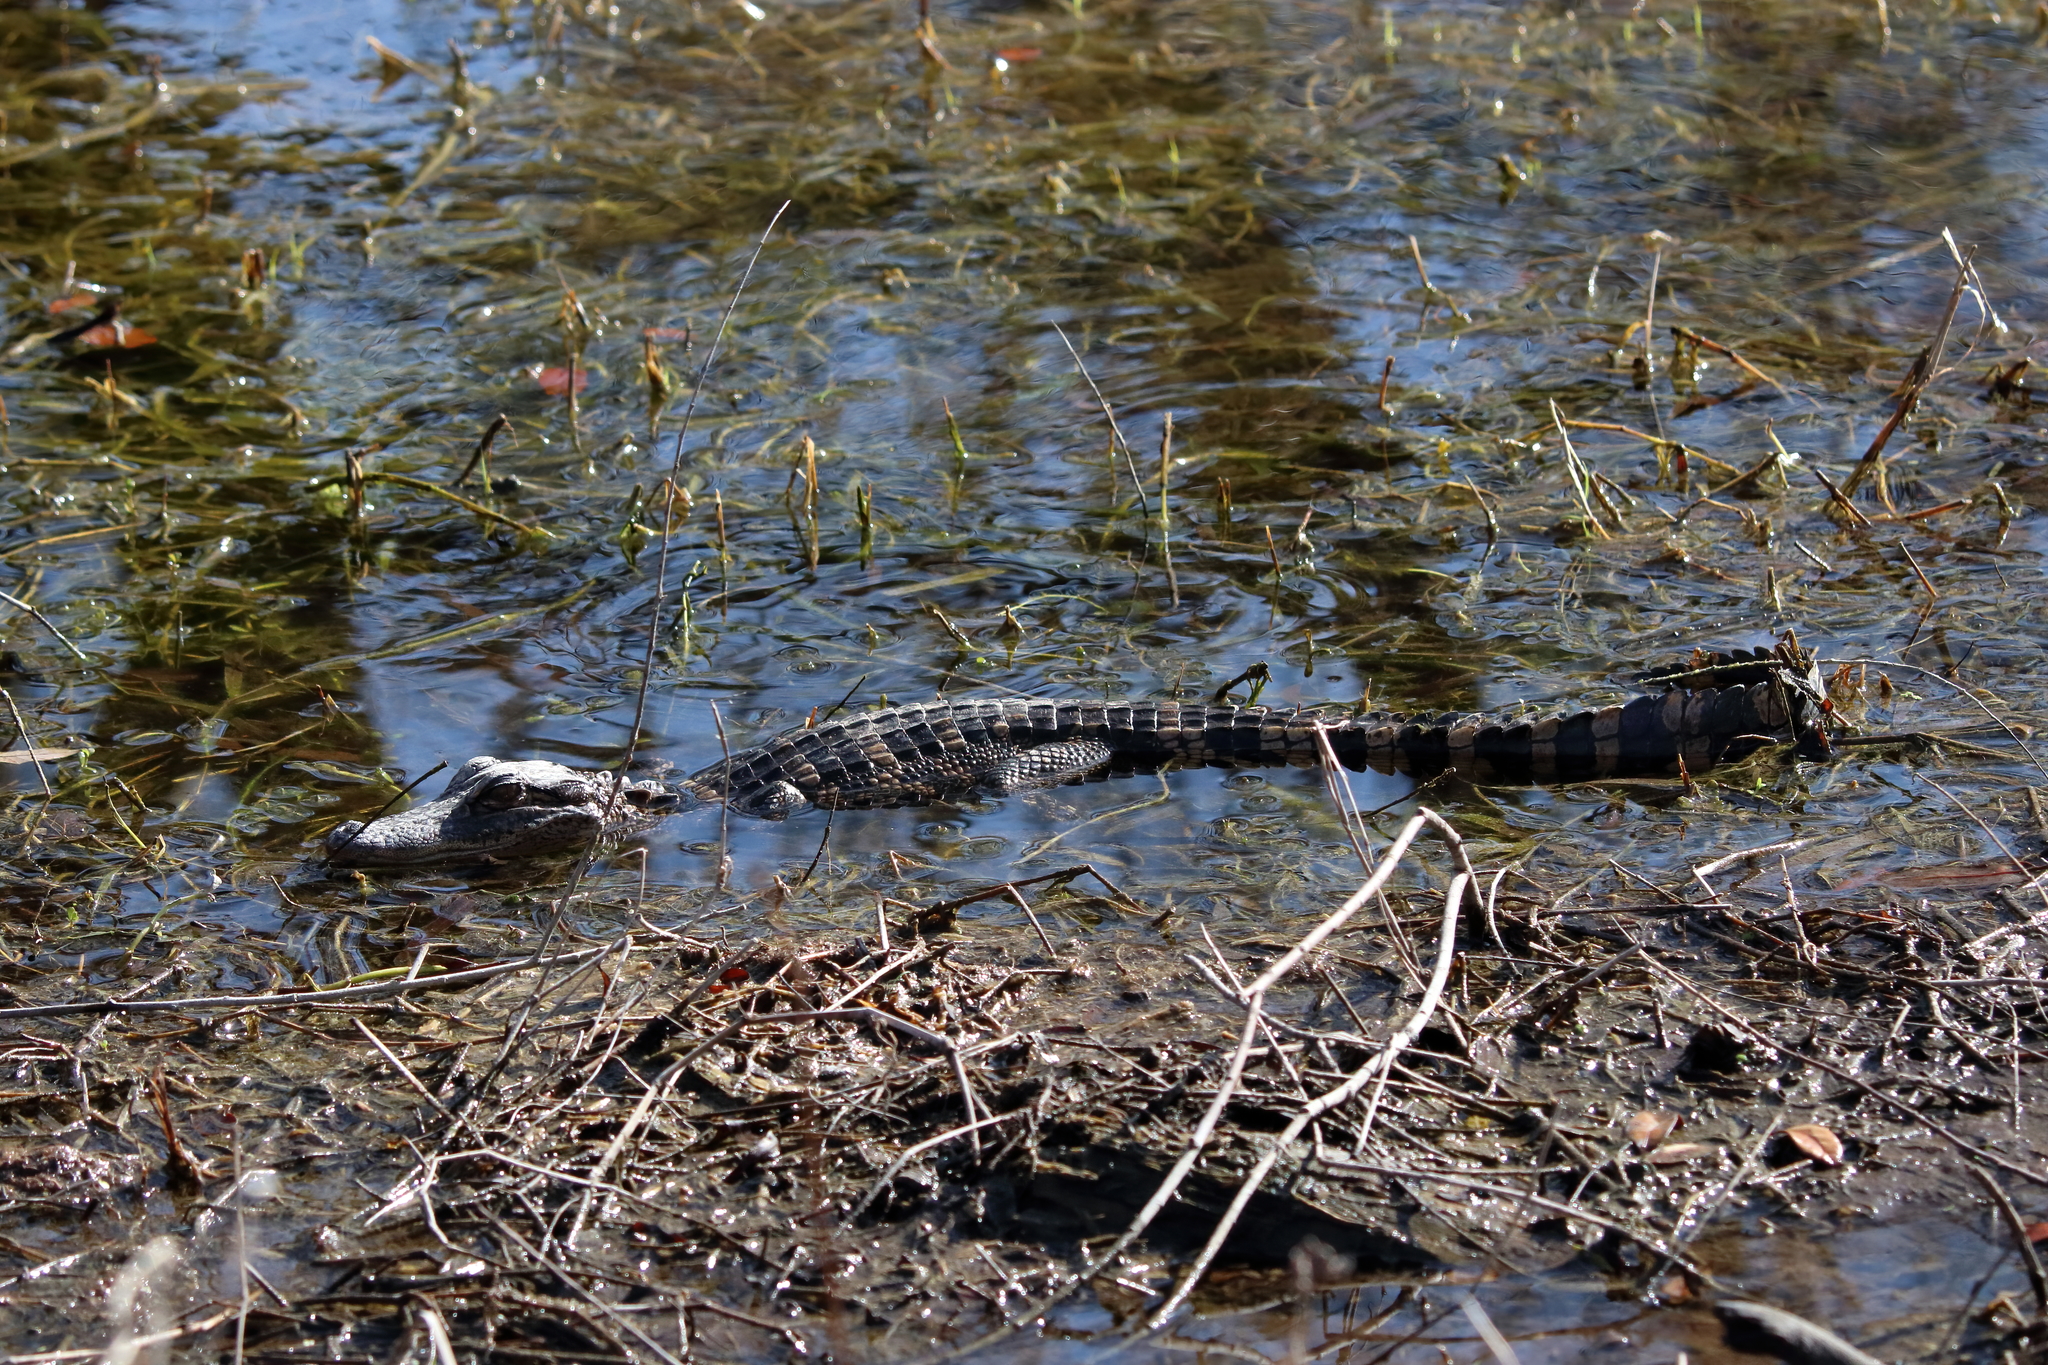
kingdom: Animalia
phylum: Chordata
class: Crocodylia
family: Alligatoridae
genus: Alligator
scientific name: Alligator mississippiensis
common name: American alligator
